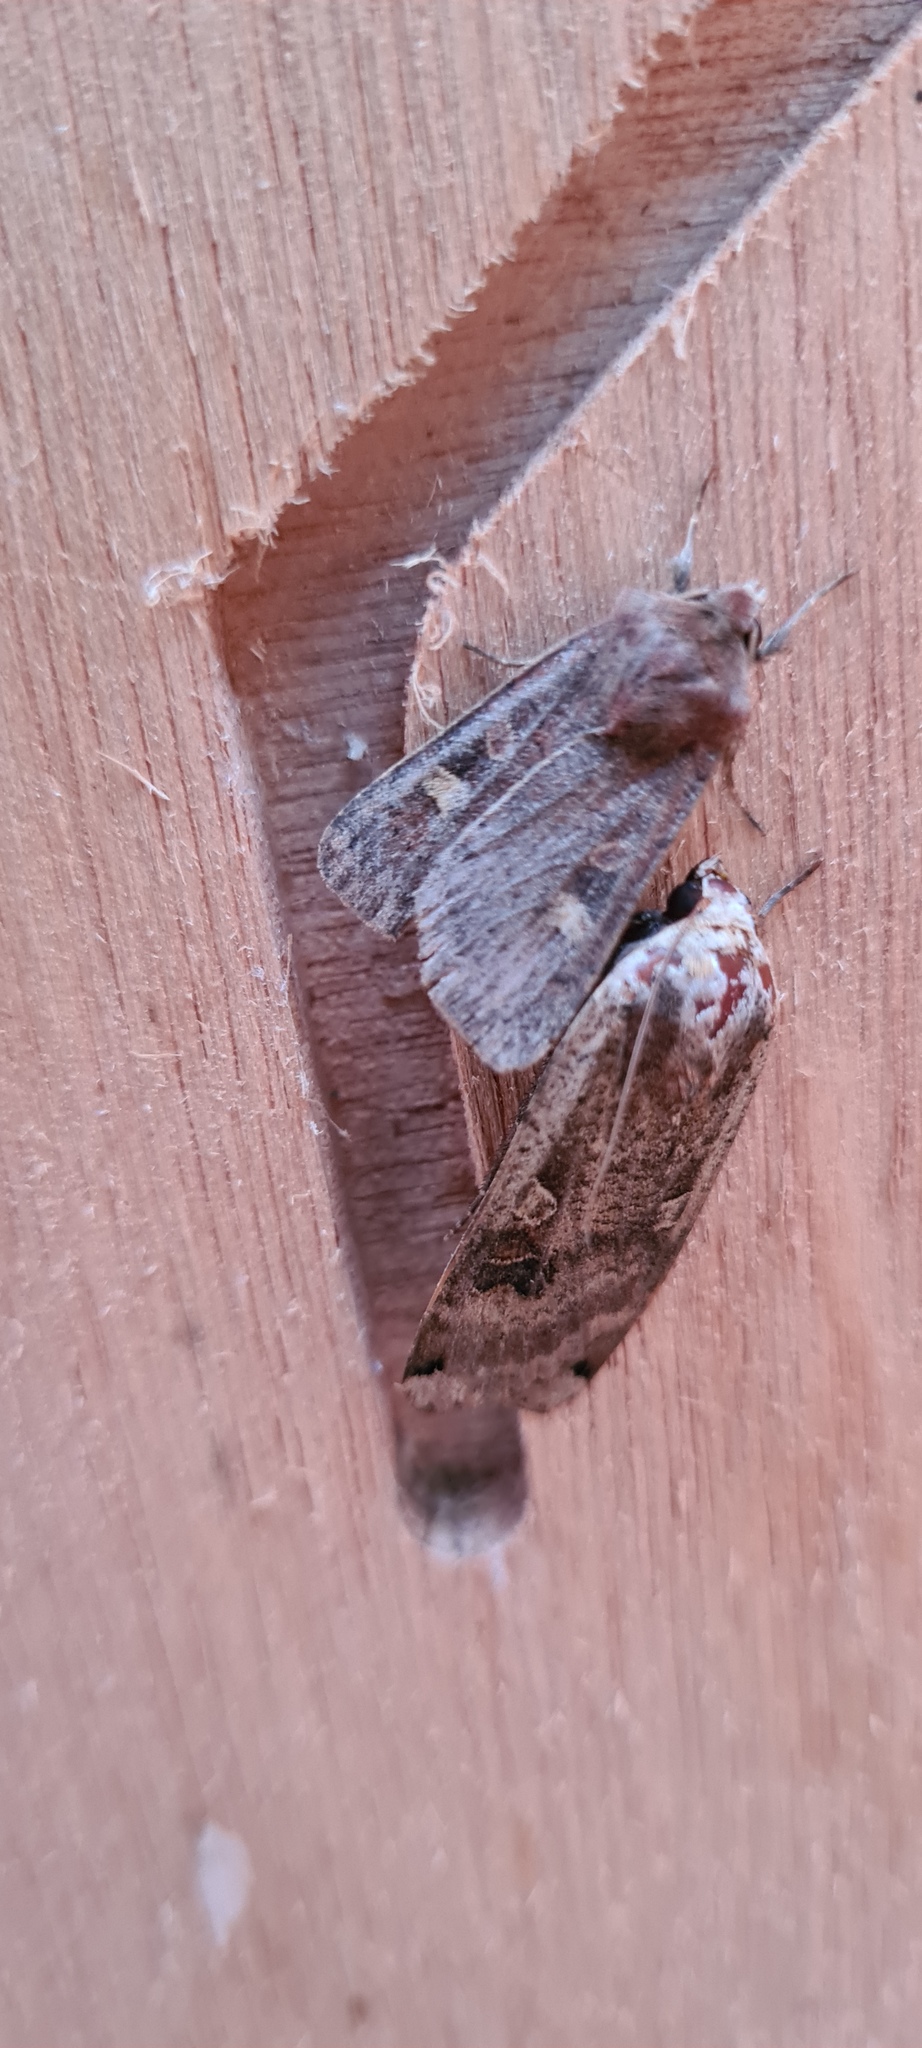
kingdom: Animalia
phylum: Arthropoda
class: Insecta
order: Lepidoptera
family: Noctuidae
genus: Xestia
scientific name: Xestia xanthographa
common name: Square-spot rustic
